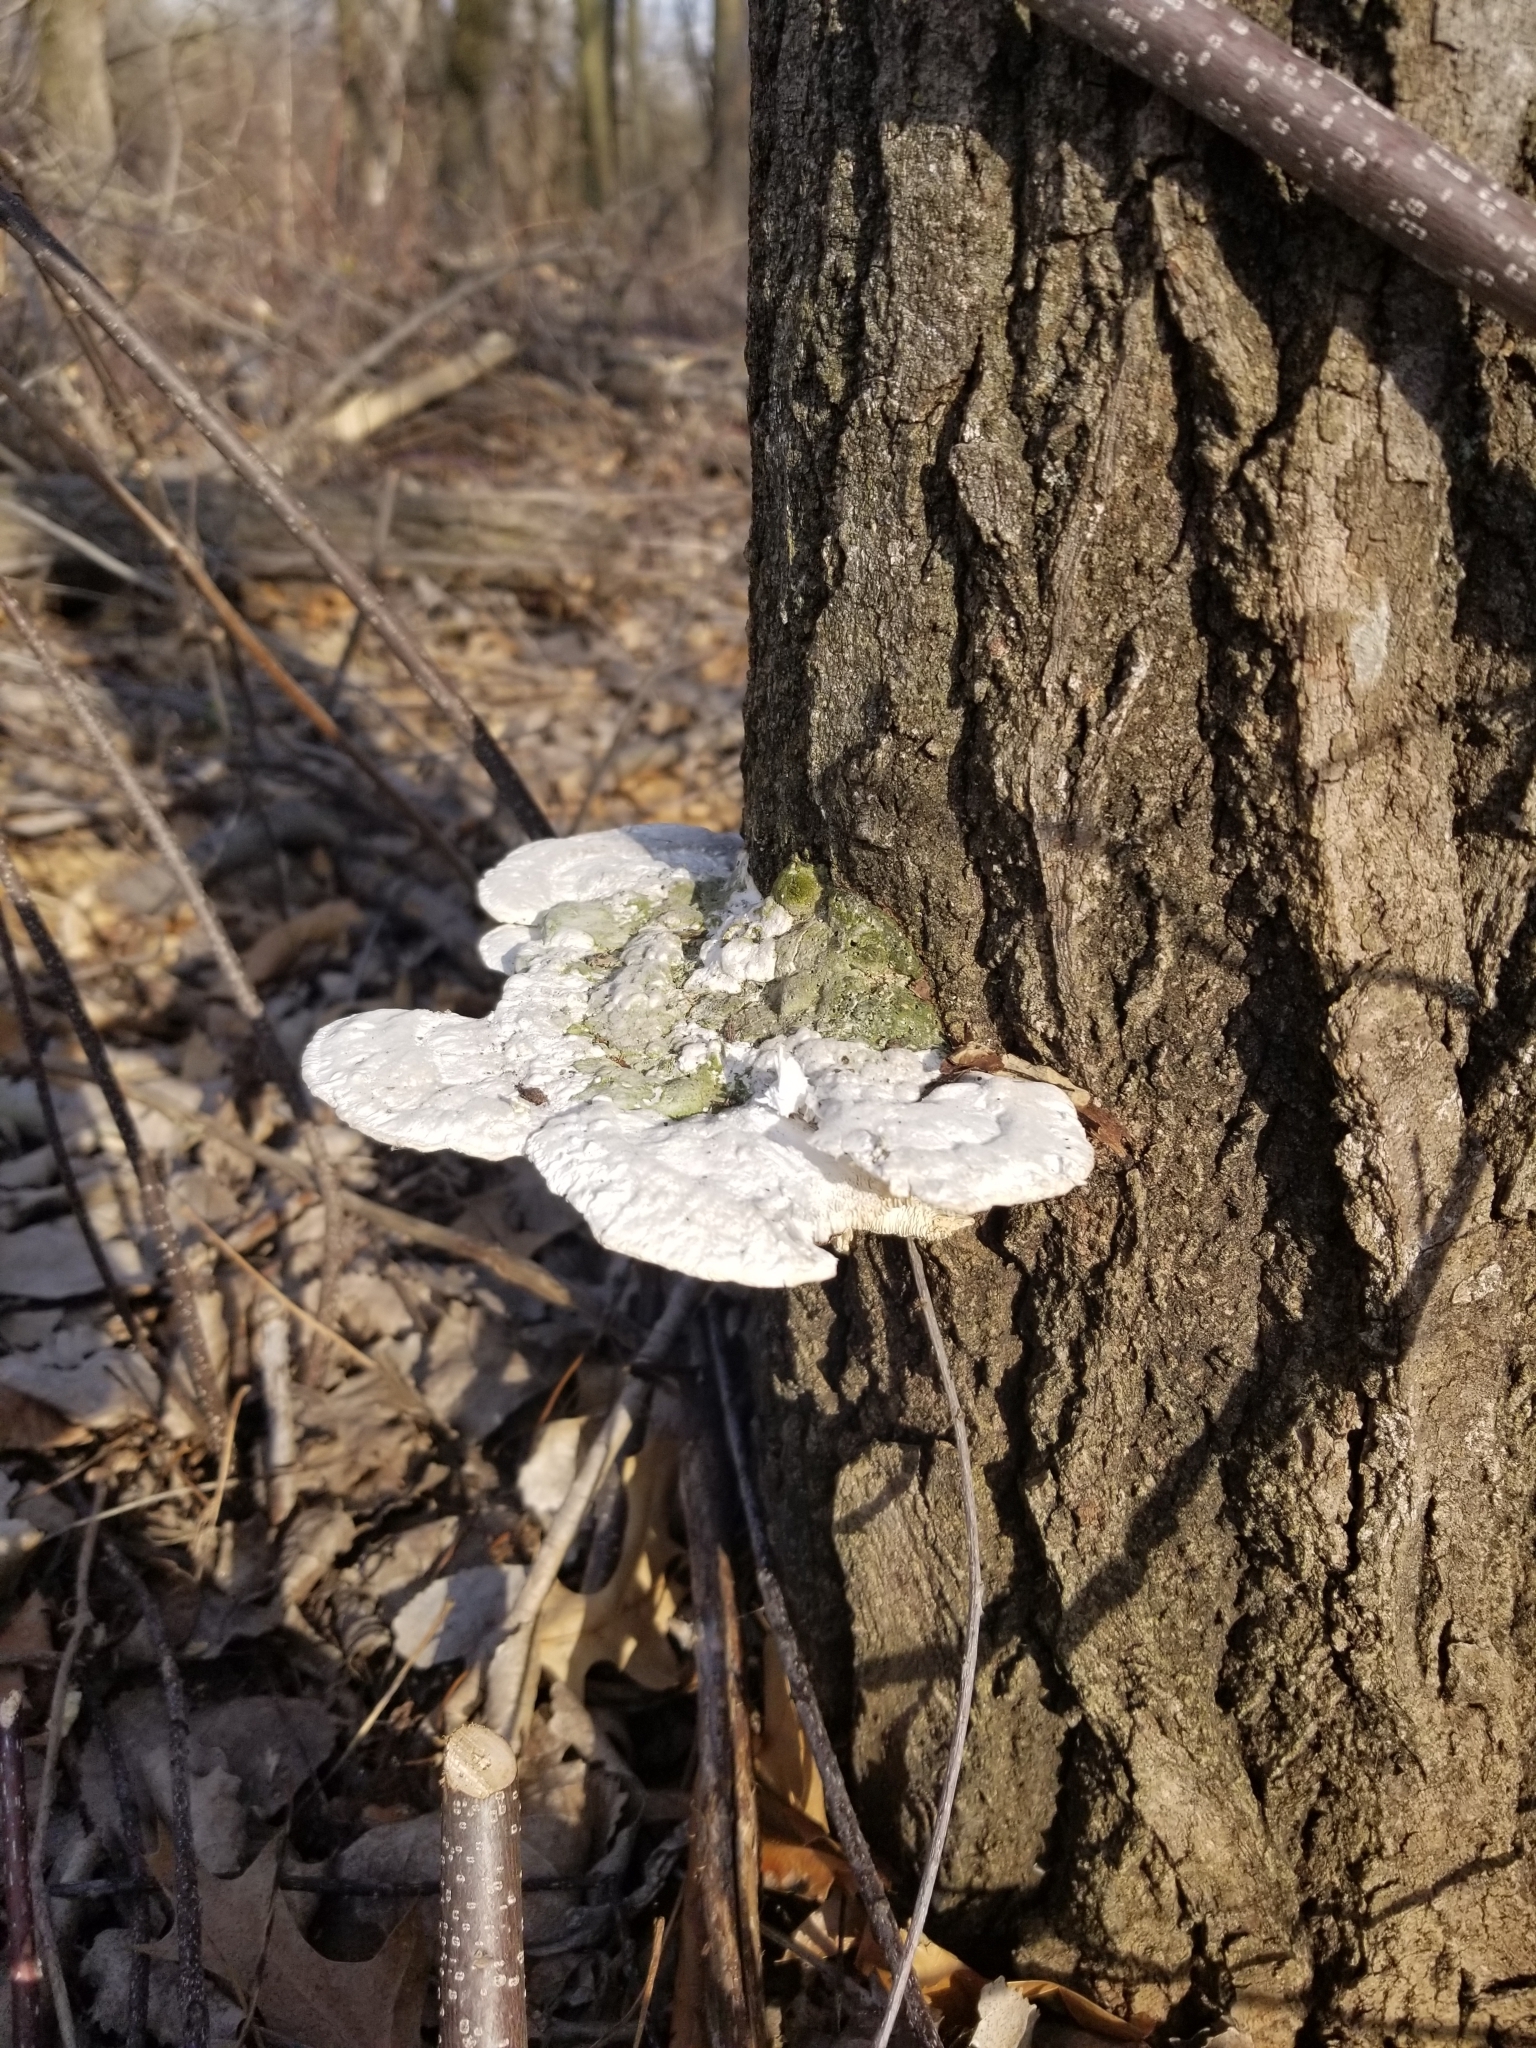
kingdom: Fungi
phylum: Basidiomycota
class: Agaricomycetes
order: Polyporales
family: Polyporaceae
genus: Trametes
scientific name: Trametes gibbosa
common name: Lumpy bracket
